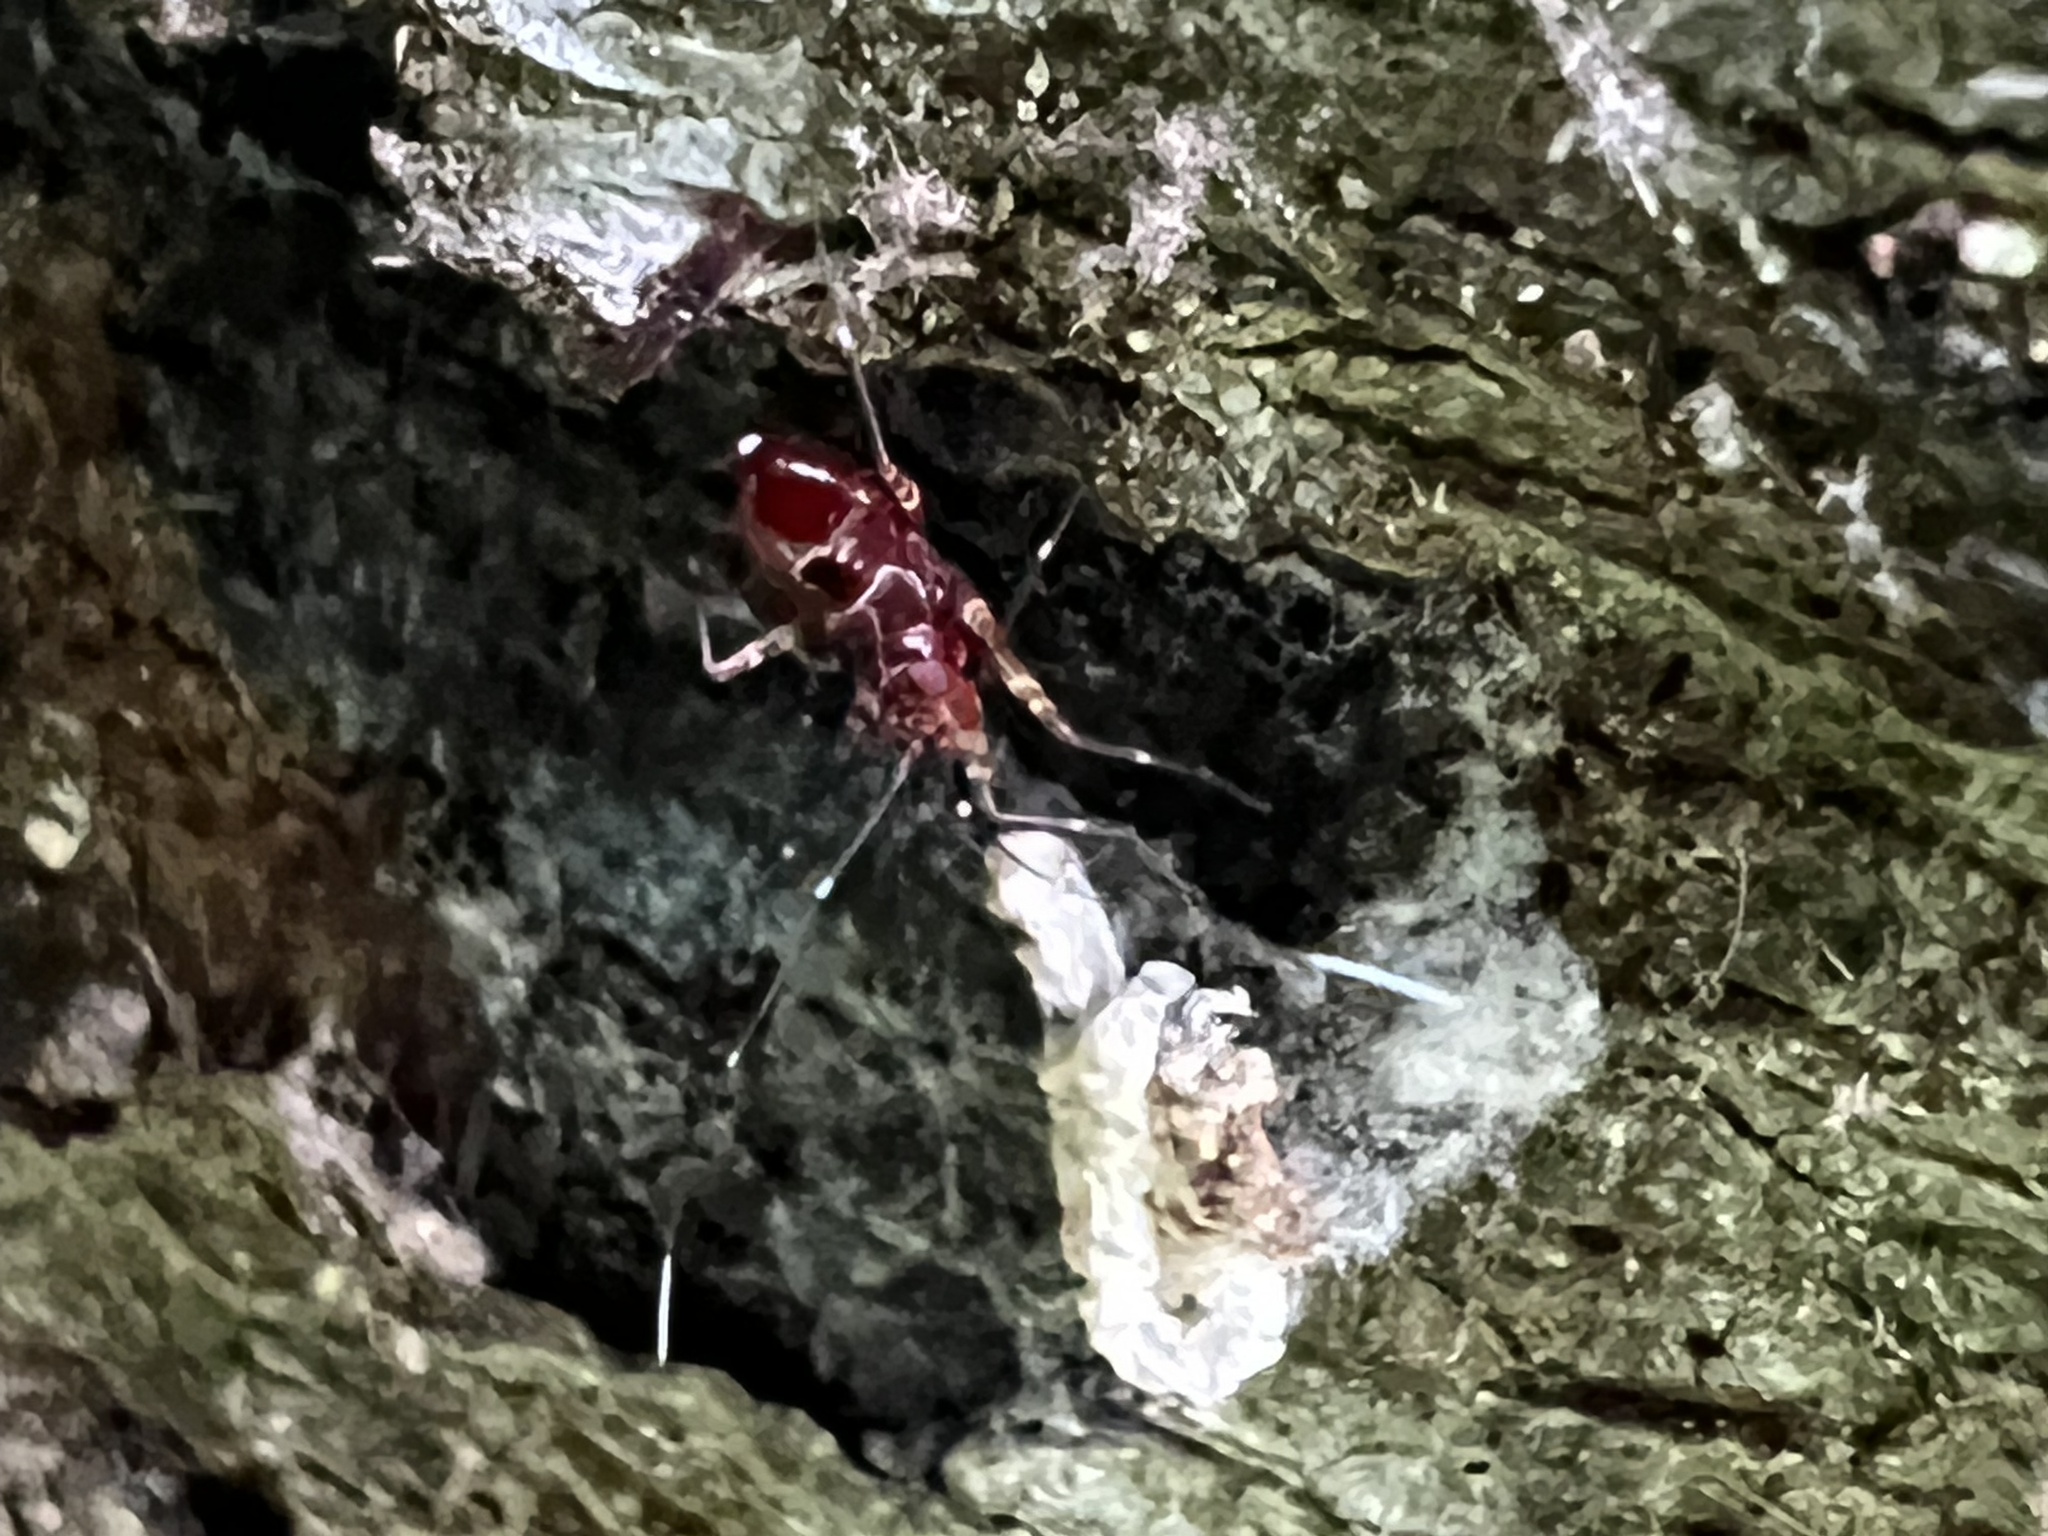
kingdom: Animalia
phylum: Arthropoda
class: Insecta
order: Hemiptera
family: Miridae
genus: Cylapus
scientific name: Cylapus tenuicornis
